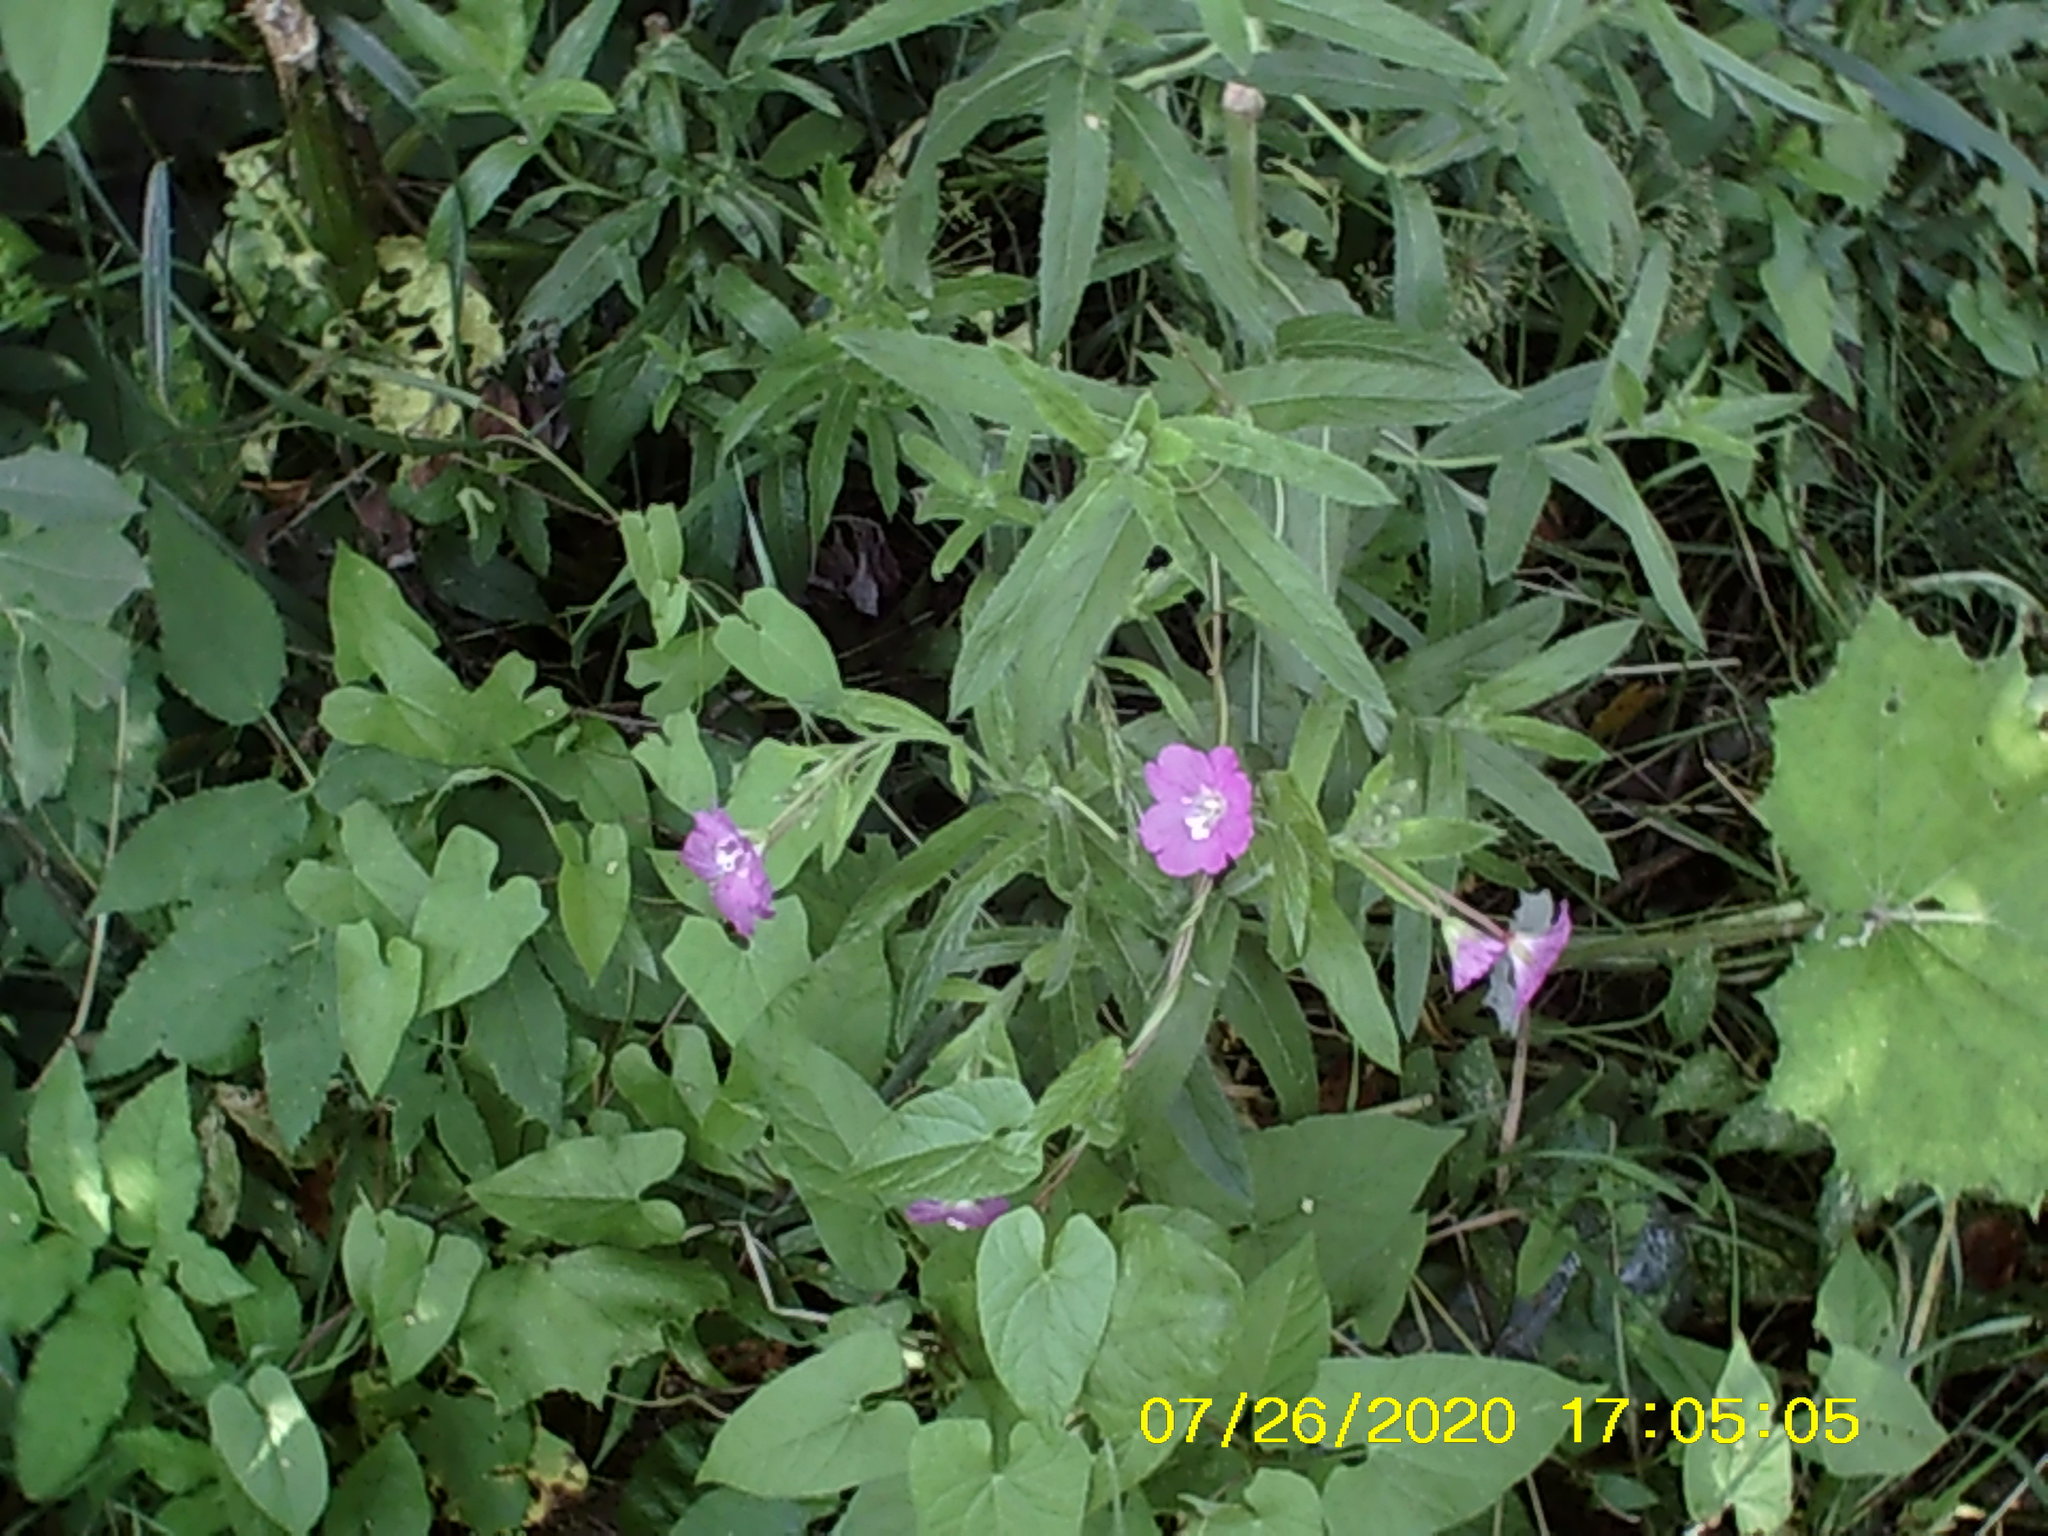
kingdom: Plantae
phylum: Tracheophyta
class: Magnoliopsida
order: Myrtales
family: Onagraceae
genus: Epilobium
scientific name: Epilobium hirsutum
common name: Great willowherb
